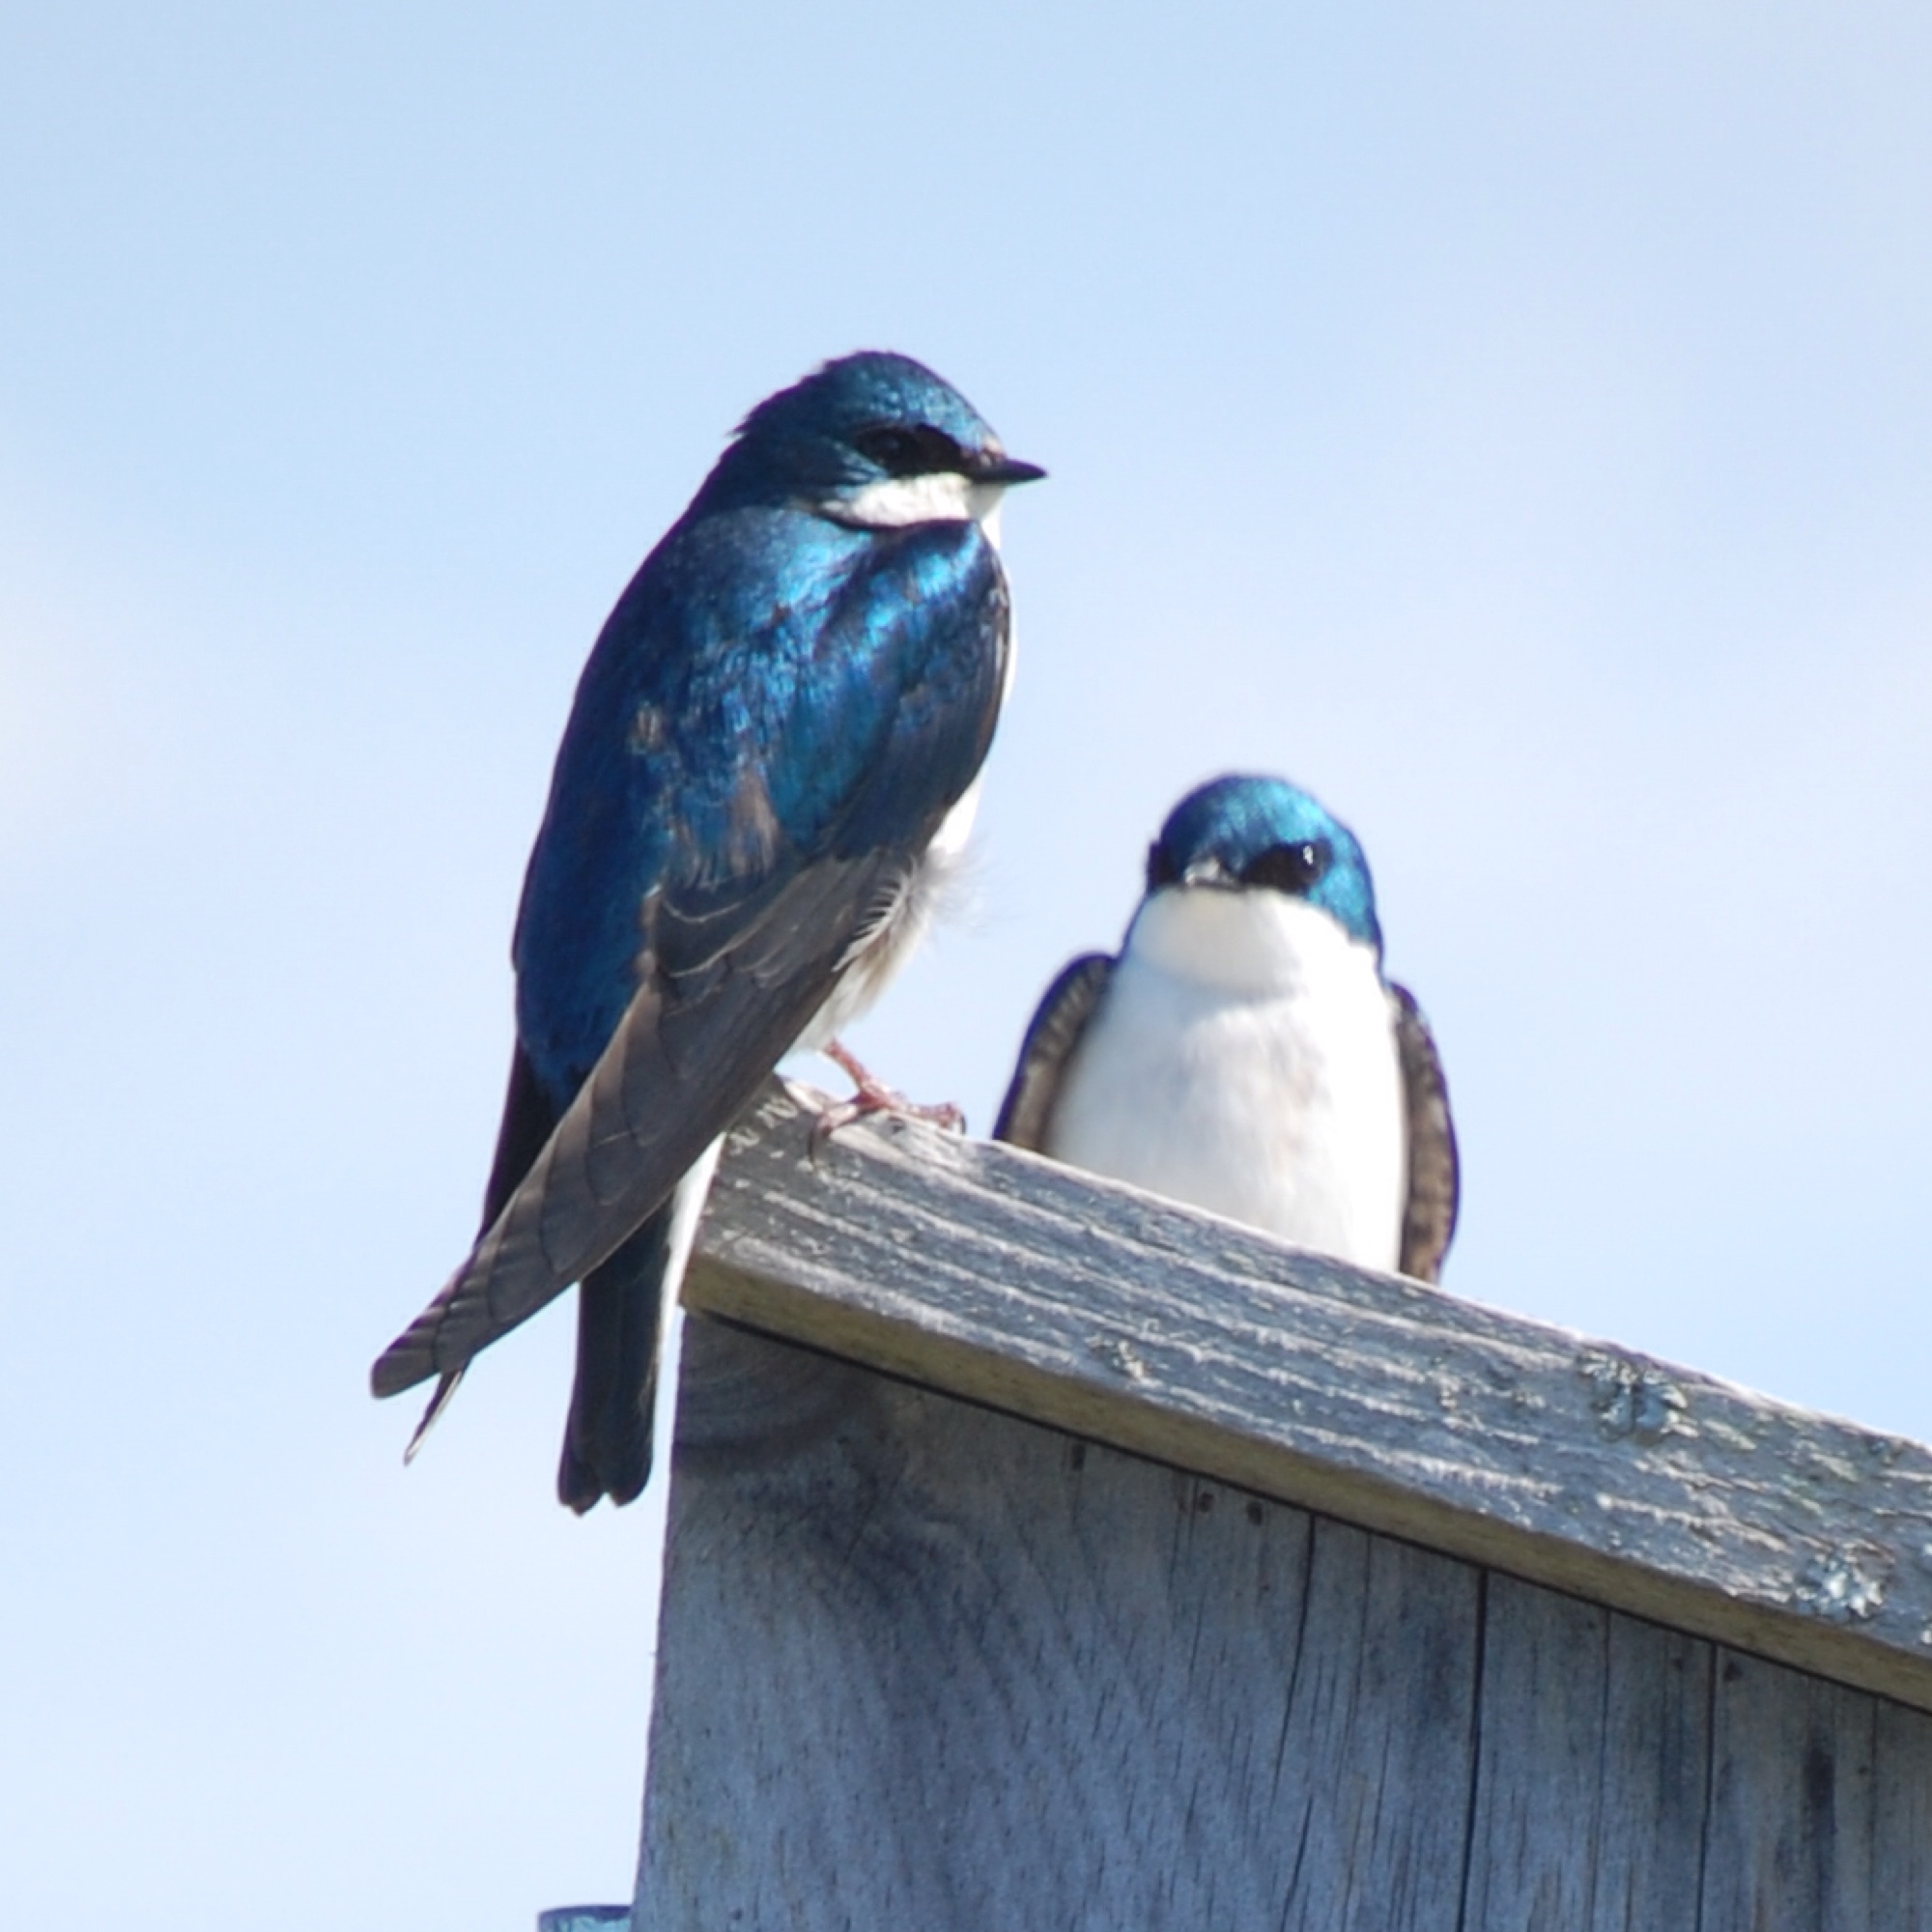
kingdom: Animalia
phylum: Chordata
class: Aves
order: Passeriformes
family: Hirundinidae
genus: Tachycineta
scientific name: Tachycineta bicolor
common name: Tree swallow
